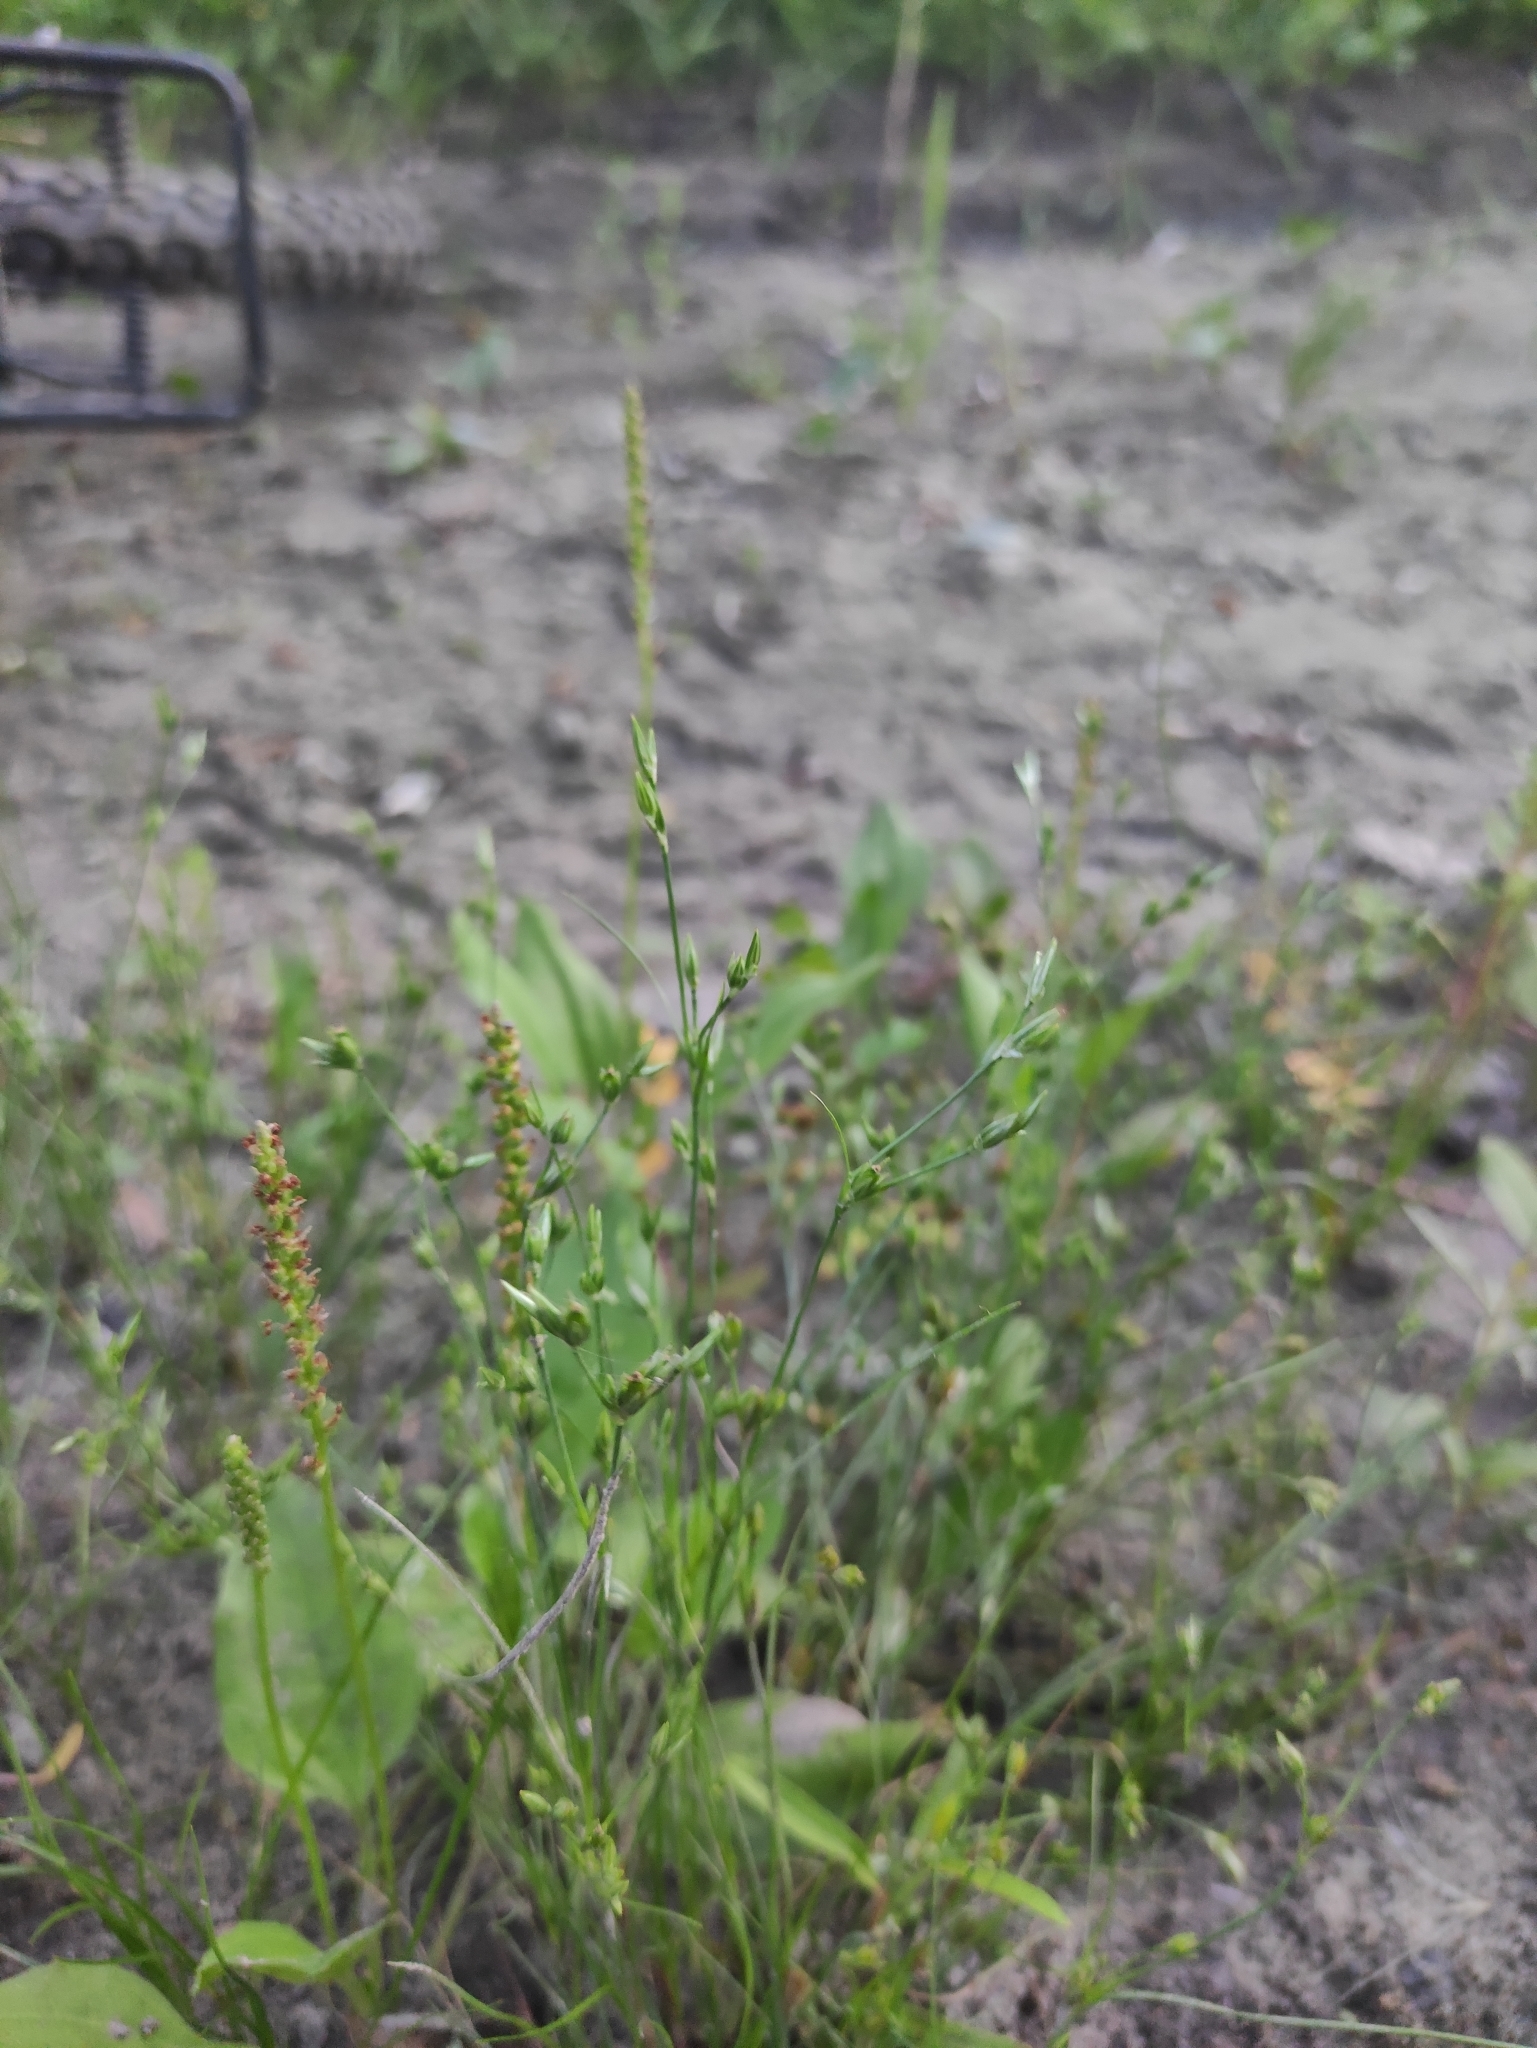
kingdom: Plantae
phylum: Tracheophyta
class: Liliopsida
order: Poales
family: Juncaceae
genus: Juncus
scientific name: Juncus bufonius
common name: Toad rush
